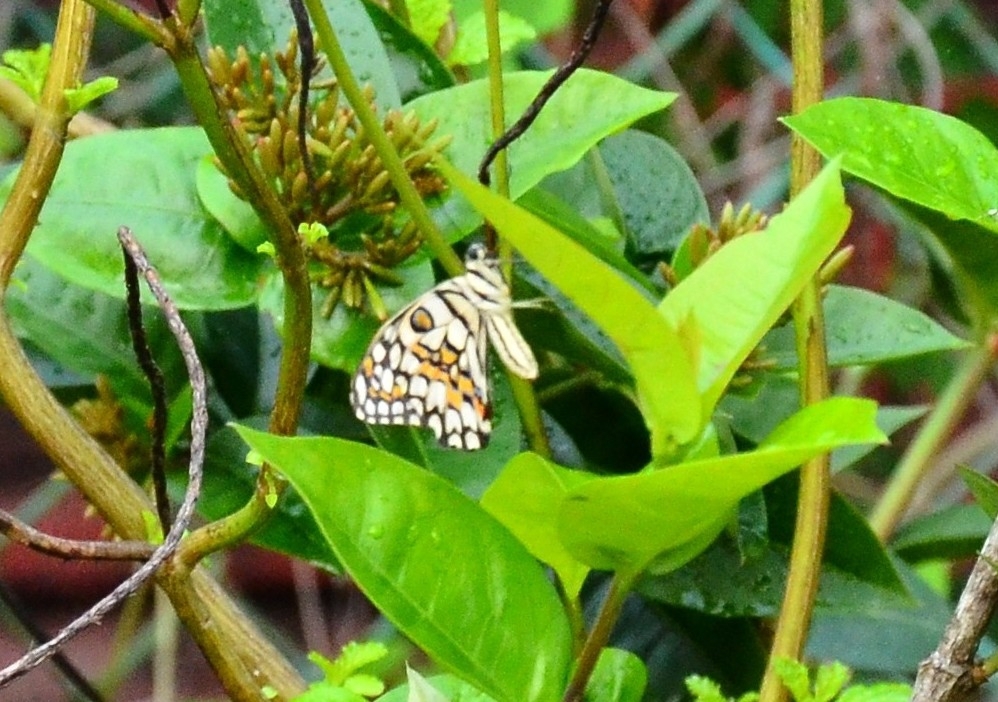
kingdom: Animalia
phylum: Arthropoda
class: Insecta
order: Lepidoptera
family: Papilionidae
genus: Papilio
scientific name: Papilio demoleus
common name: Lime butterfly
